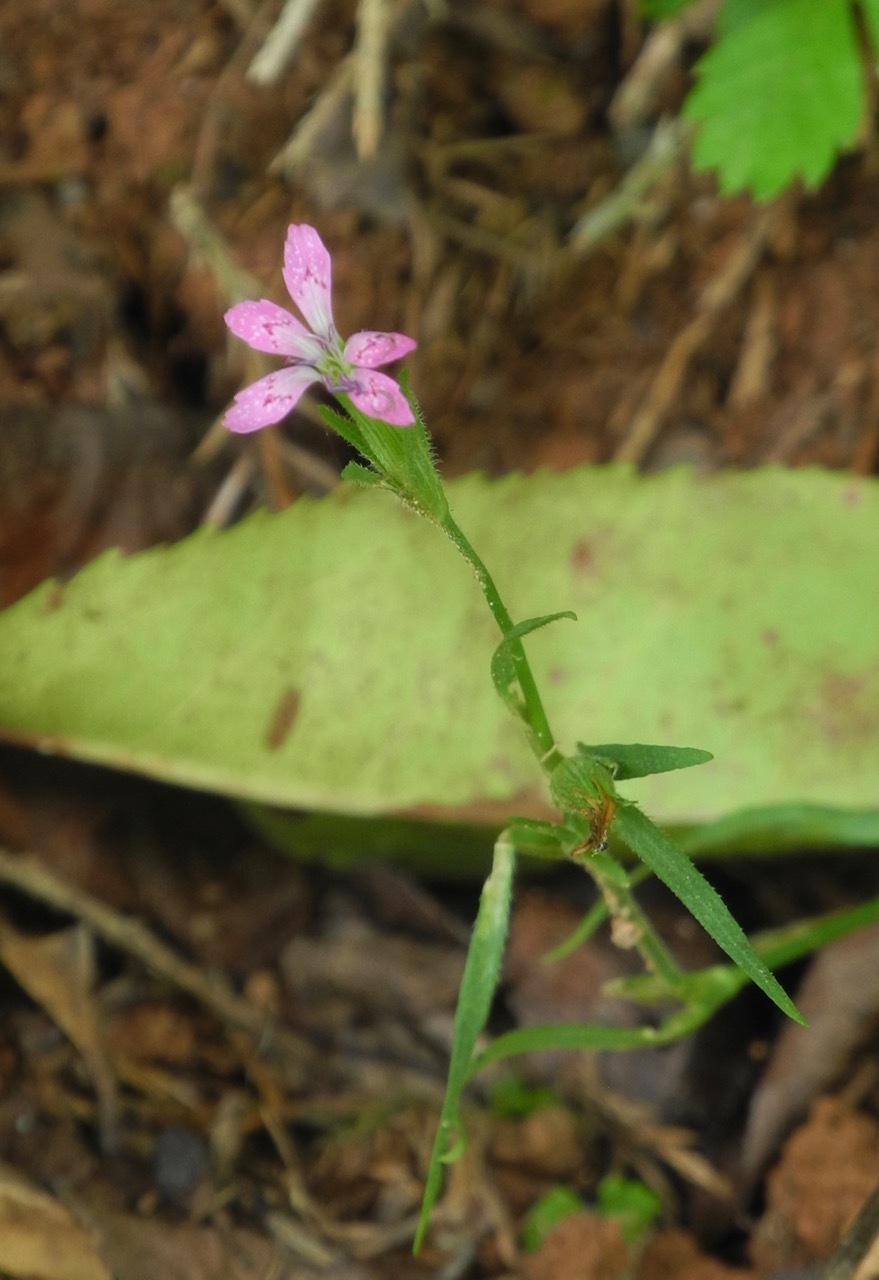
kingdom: Plantae
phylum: Tracheophyta
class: Magnoliopsida
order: Caryophyllales
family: Caryophyllaceae
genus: Dianthus
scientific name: Dianthus armeria
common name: Deptford pink
